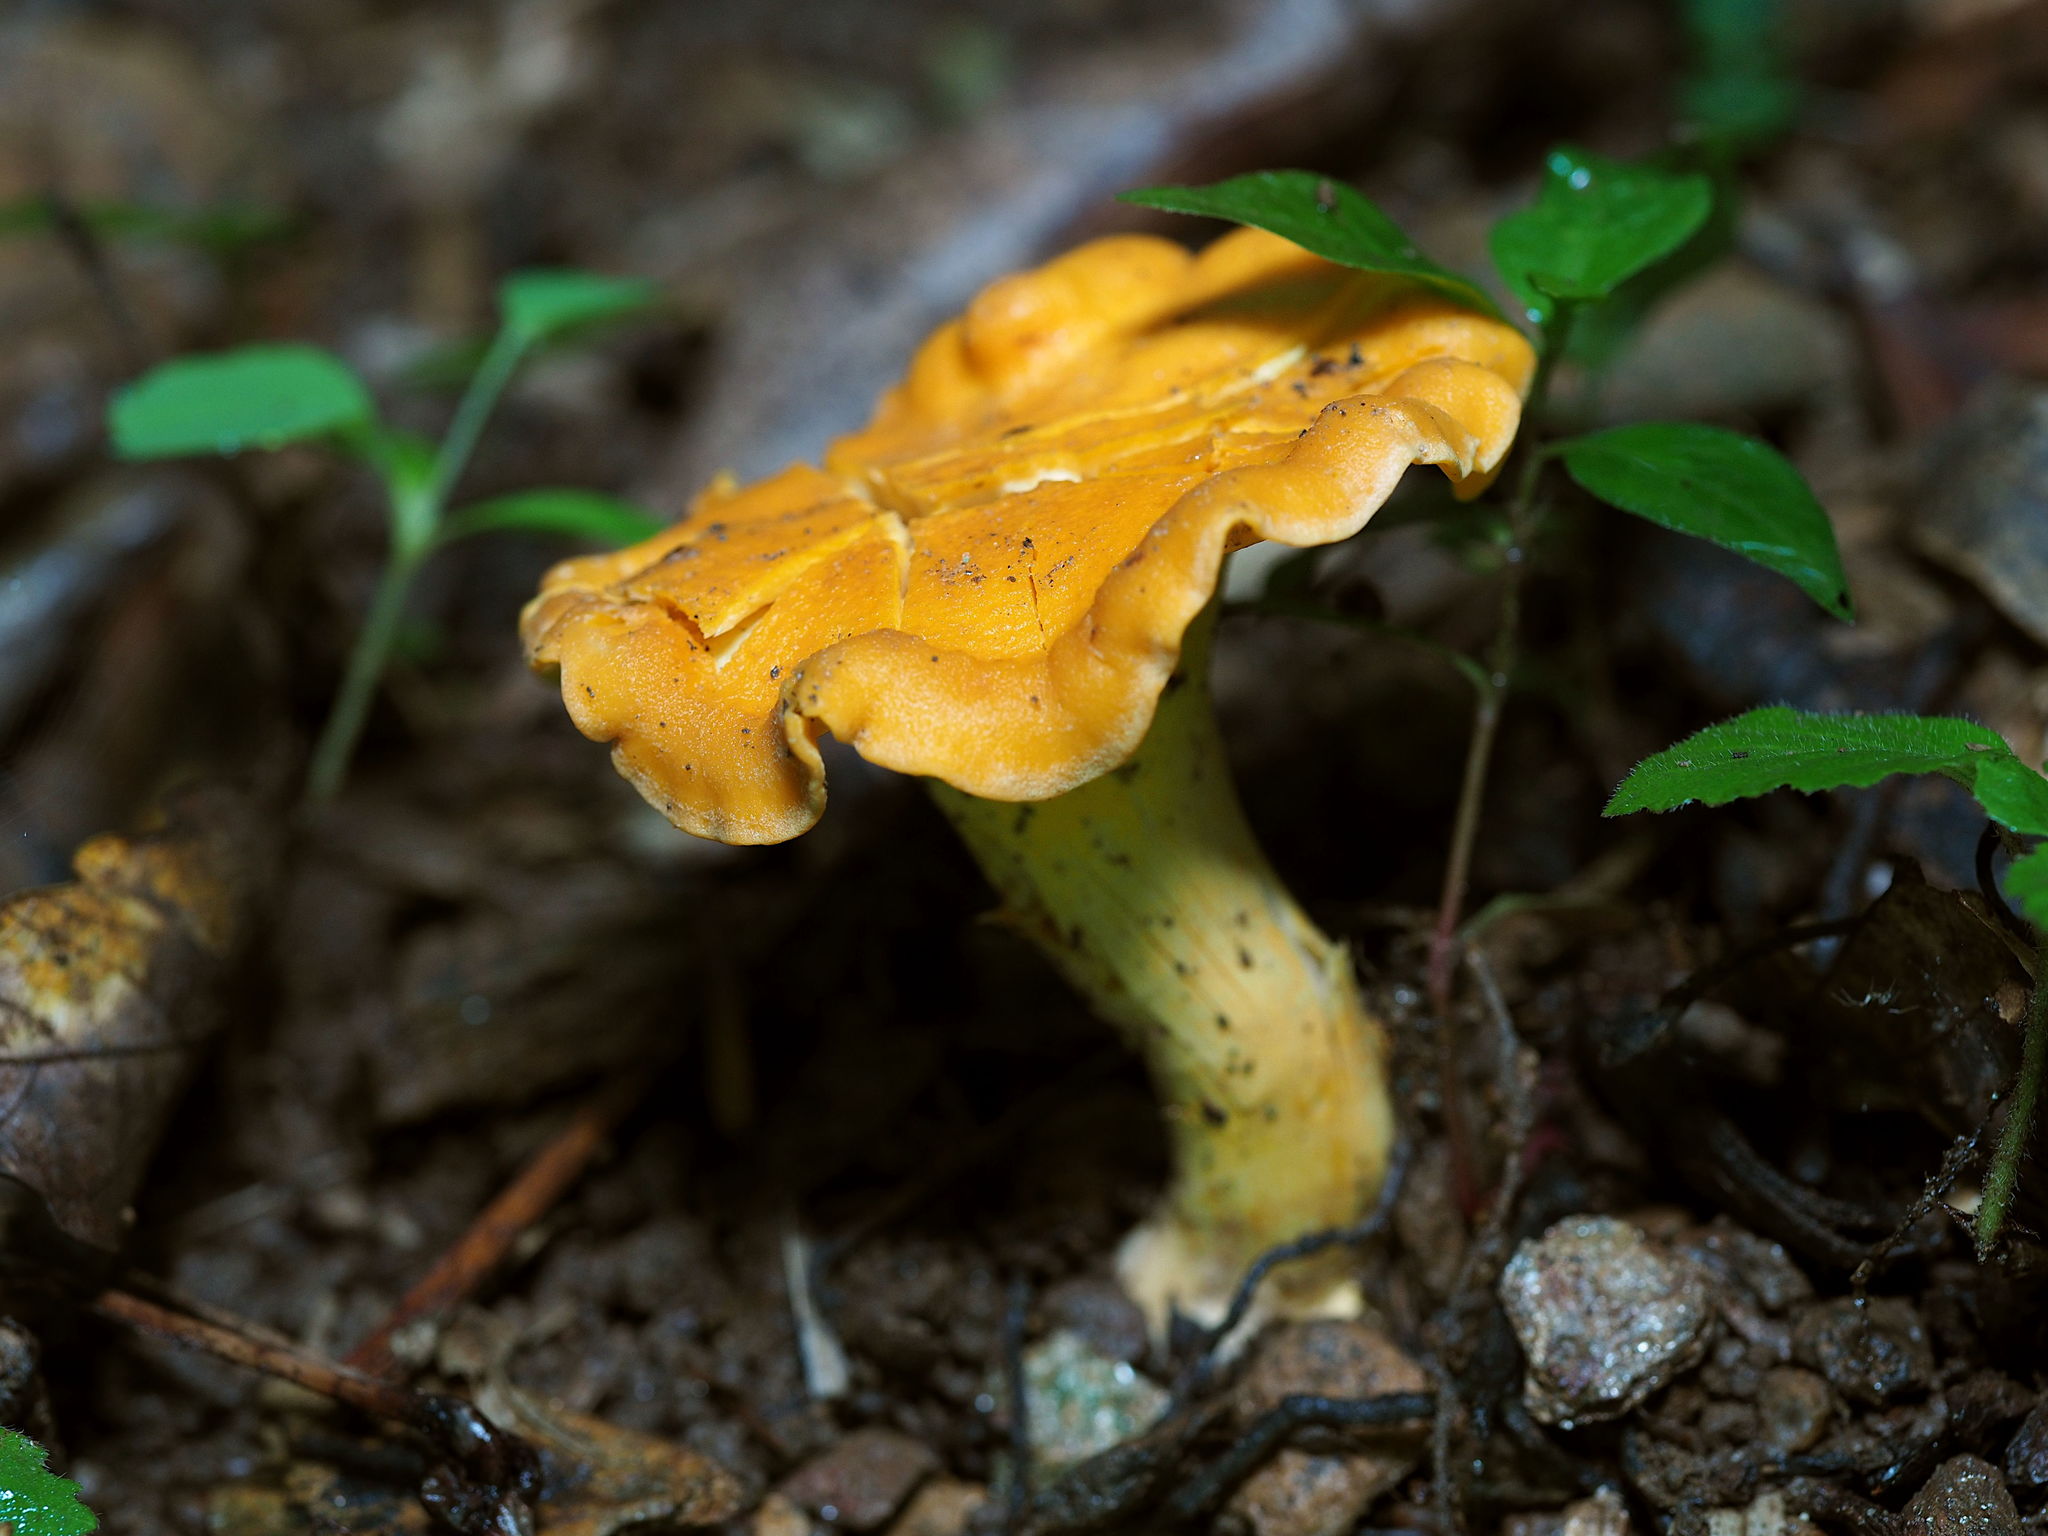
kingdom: Fungi
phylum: Basidiomycota
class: Agaricomycetes
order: Cantharellales
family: Hydnaceae
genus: Cantharellus
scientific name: Cantharellus lateritius
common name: Smooth chanterelle
